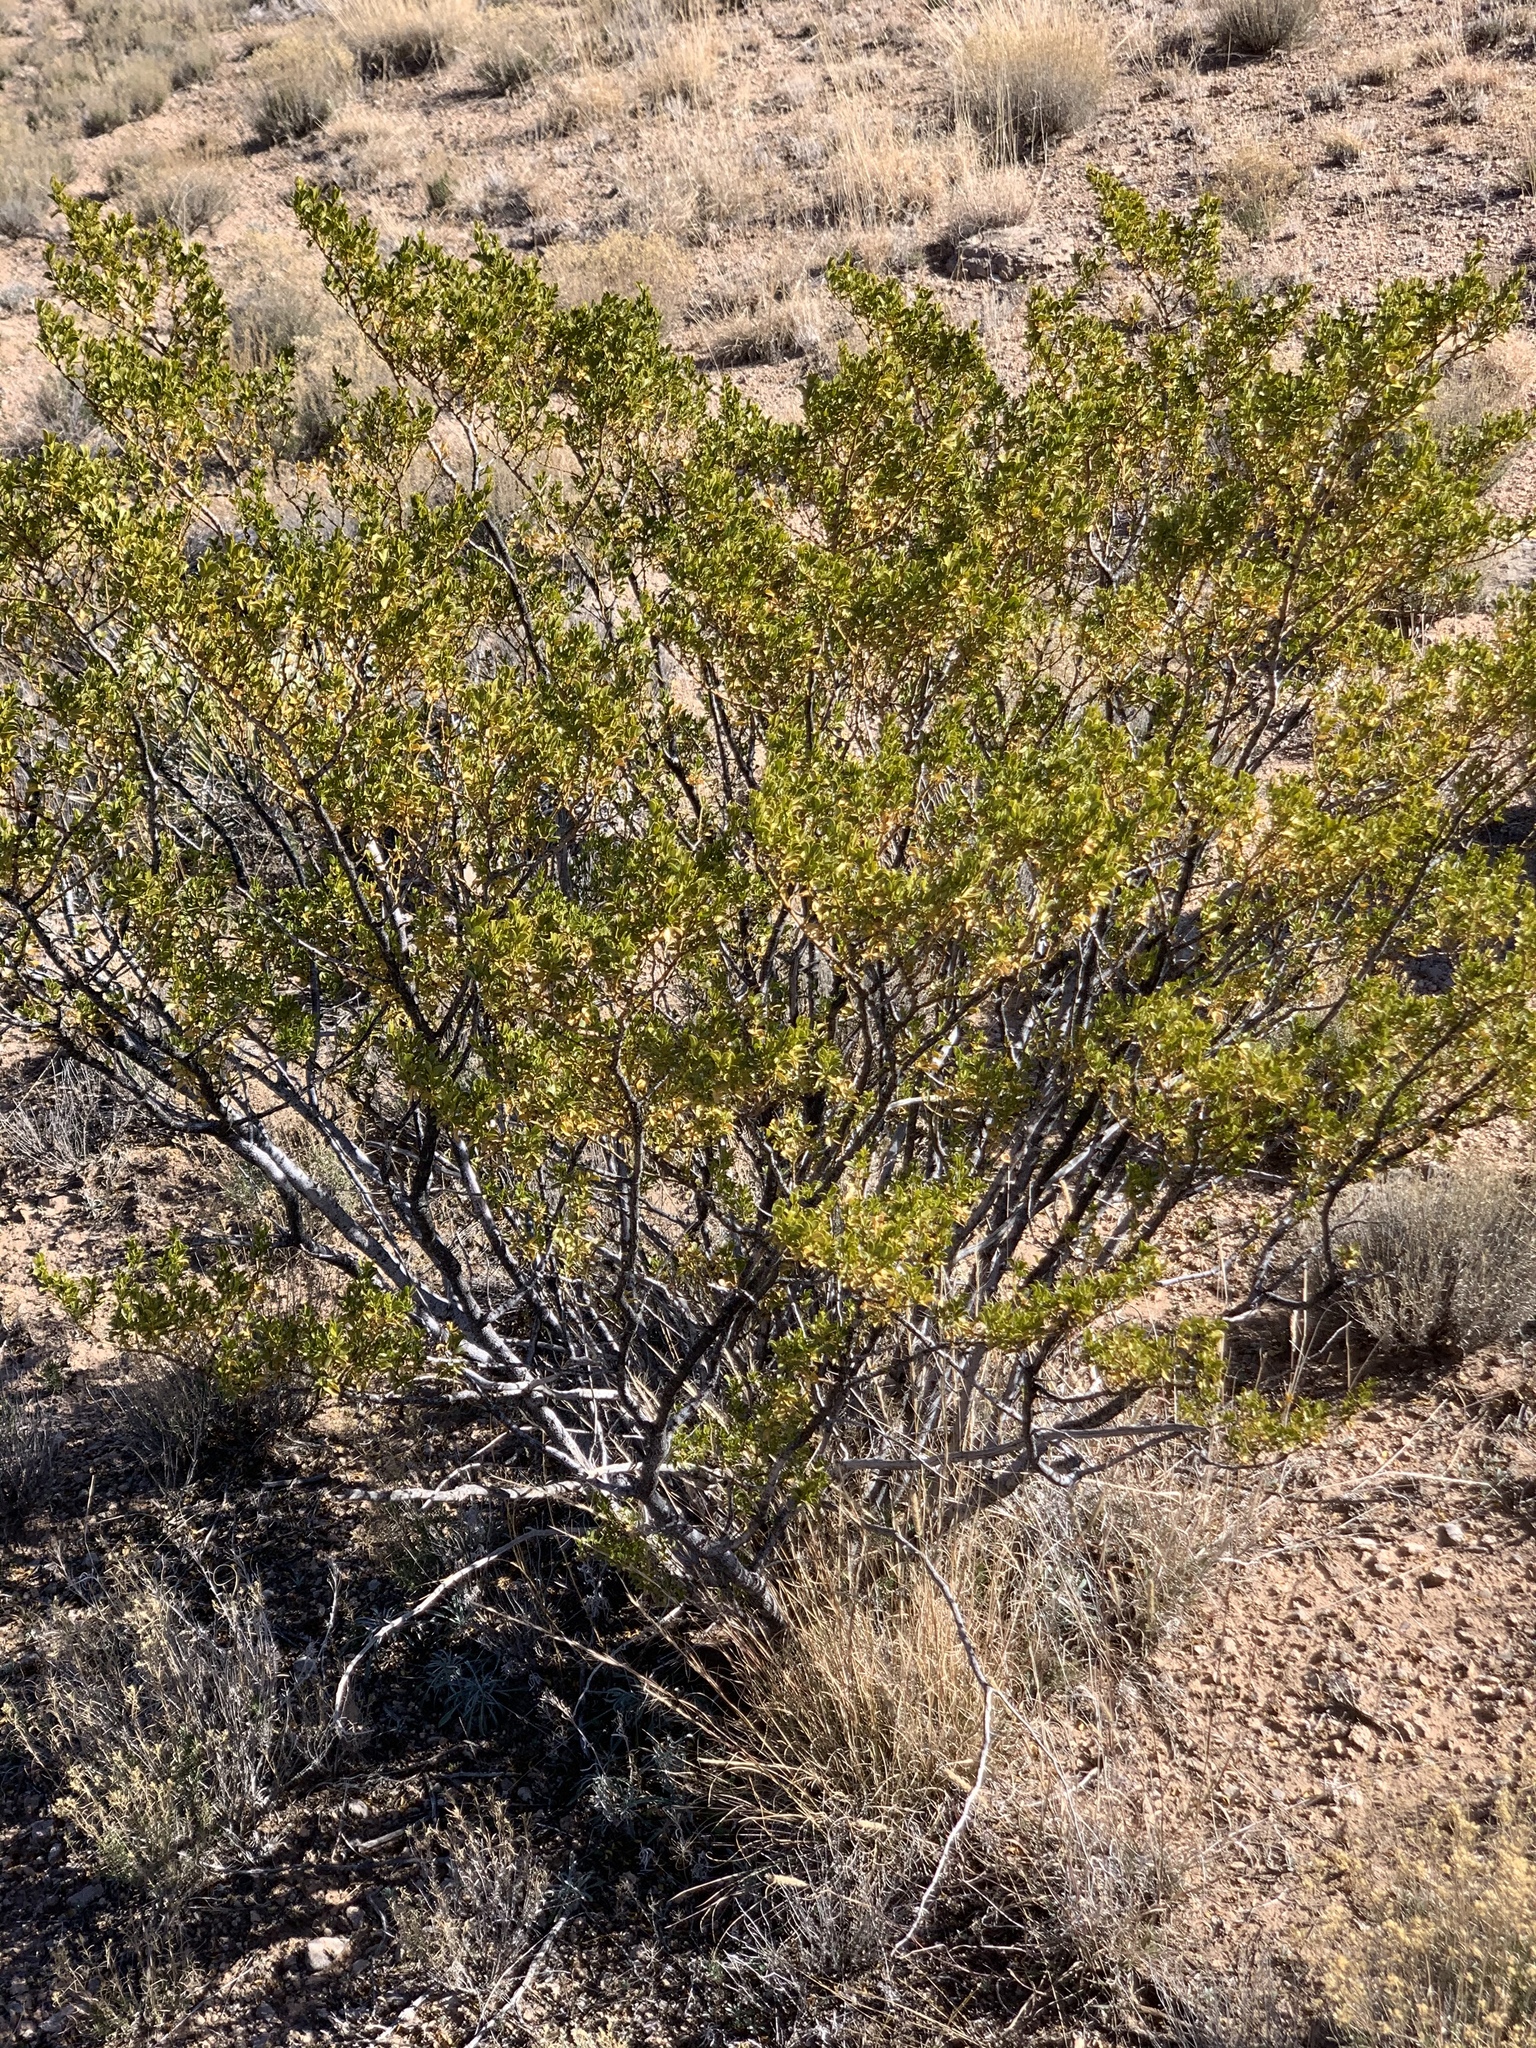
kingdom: Plantae
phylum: Tracheophyta
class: Magnoliopsida
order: Zygophyllales
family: Zygophyllaceae
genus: Larrea
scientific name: Larrea tridentata
